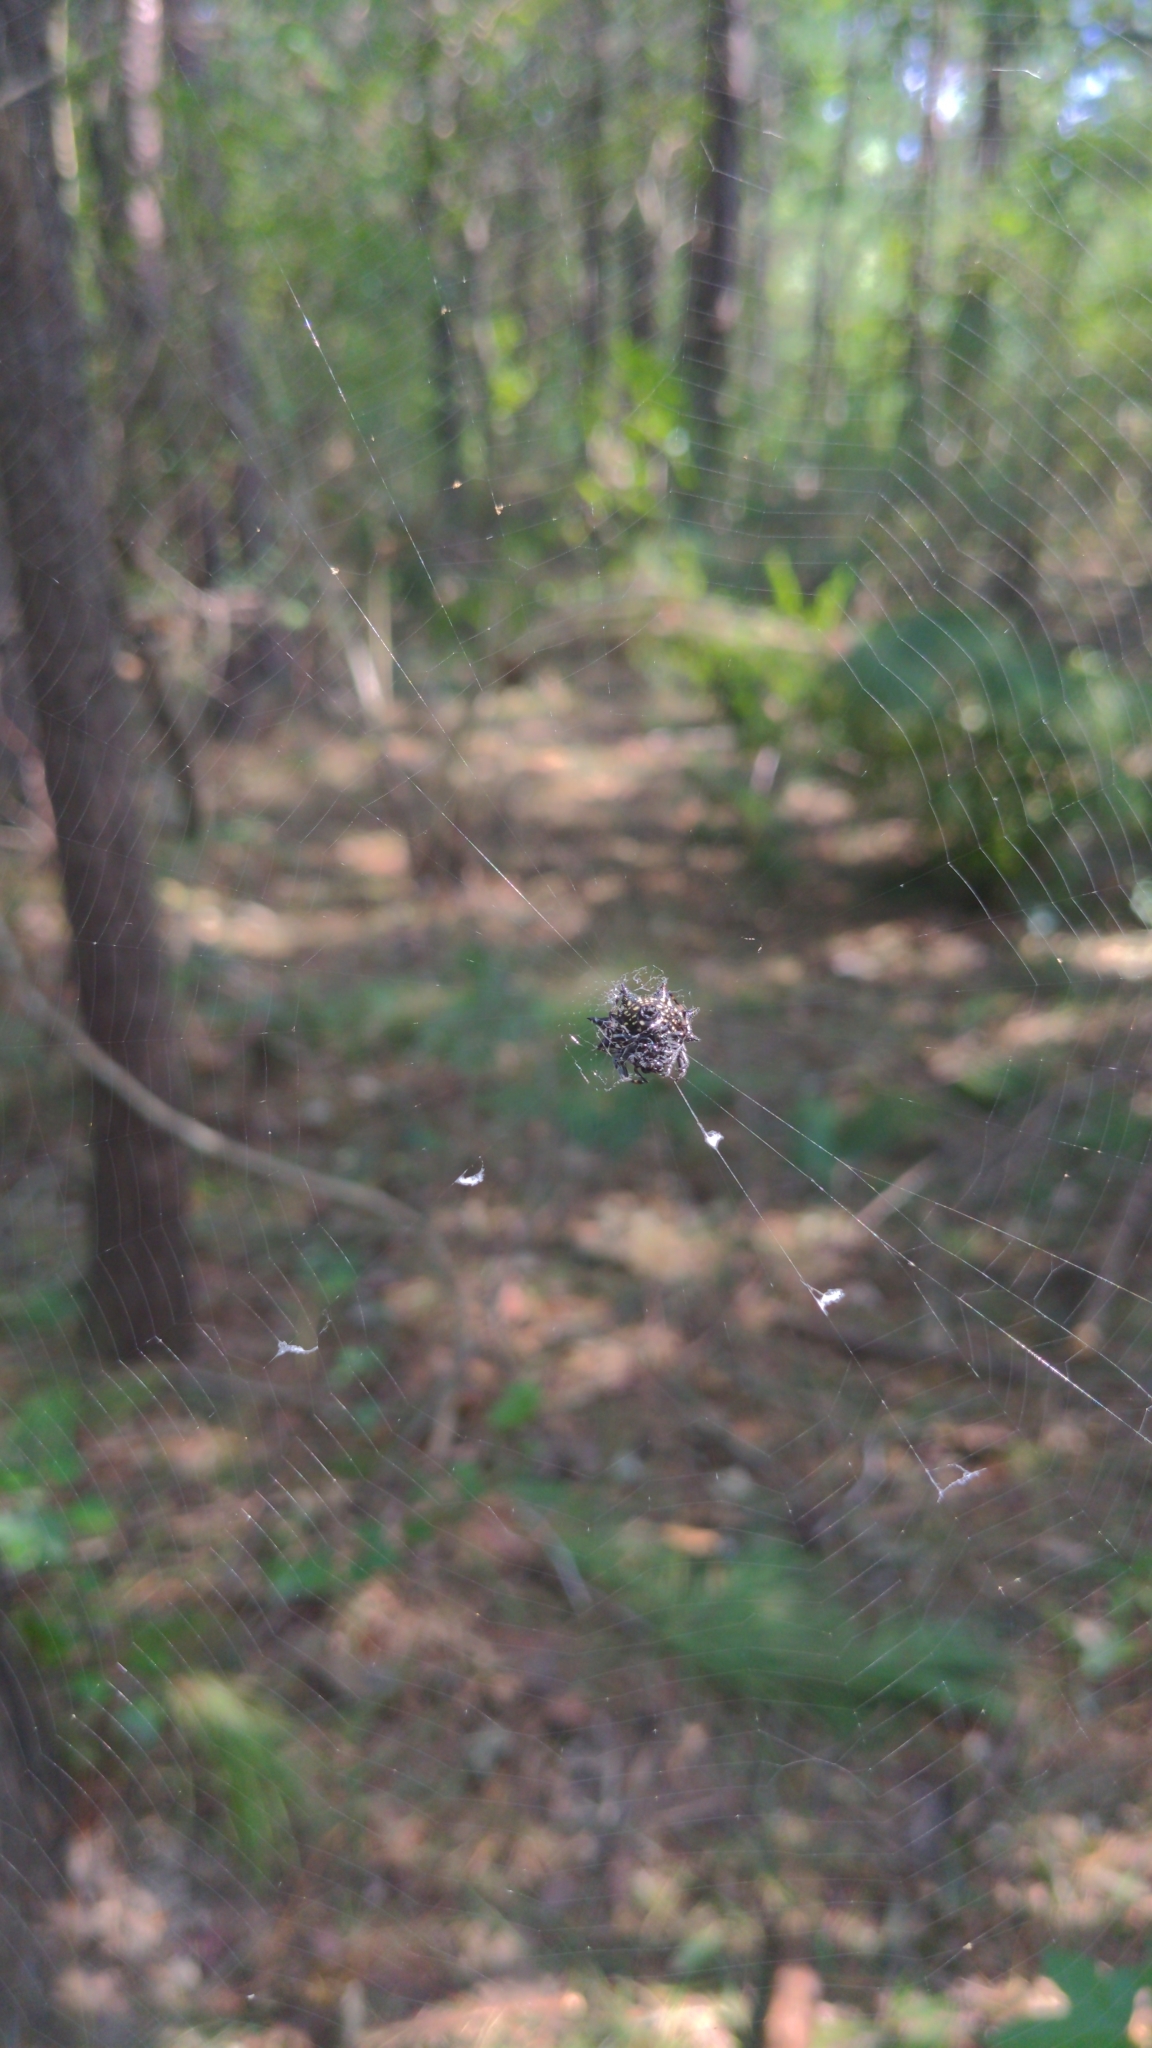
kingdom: Animalia
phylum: Arthropoda
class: Arachnida
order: Araneae
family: Araneidae
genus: Gasteracantha
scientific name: Gasteracantha cancriformis
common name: Orb weavers
